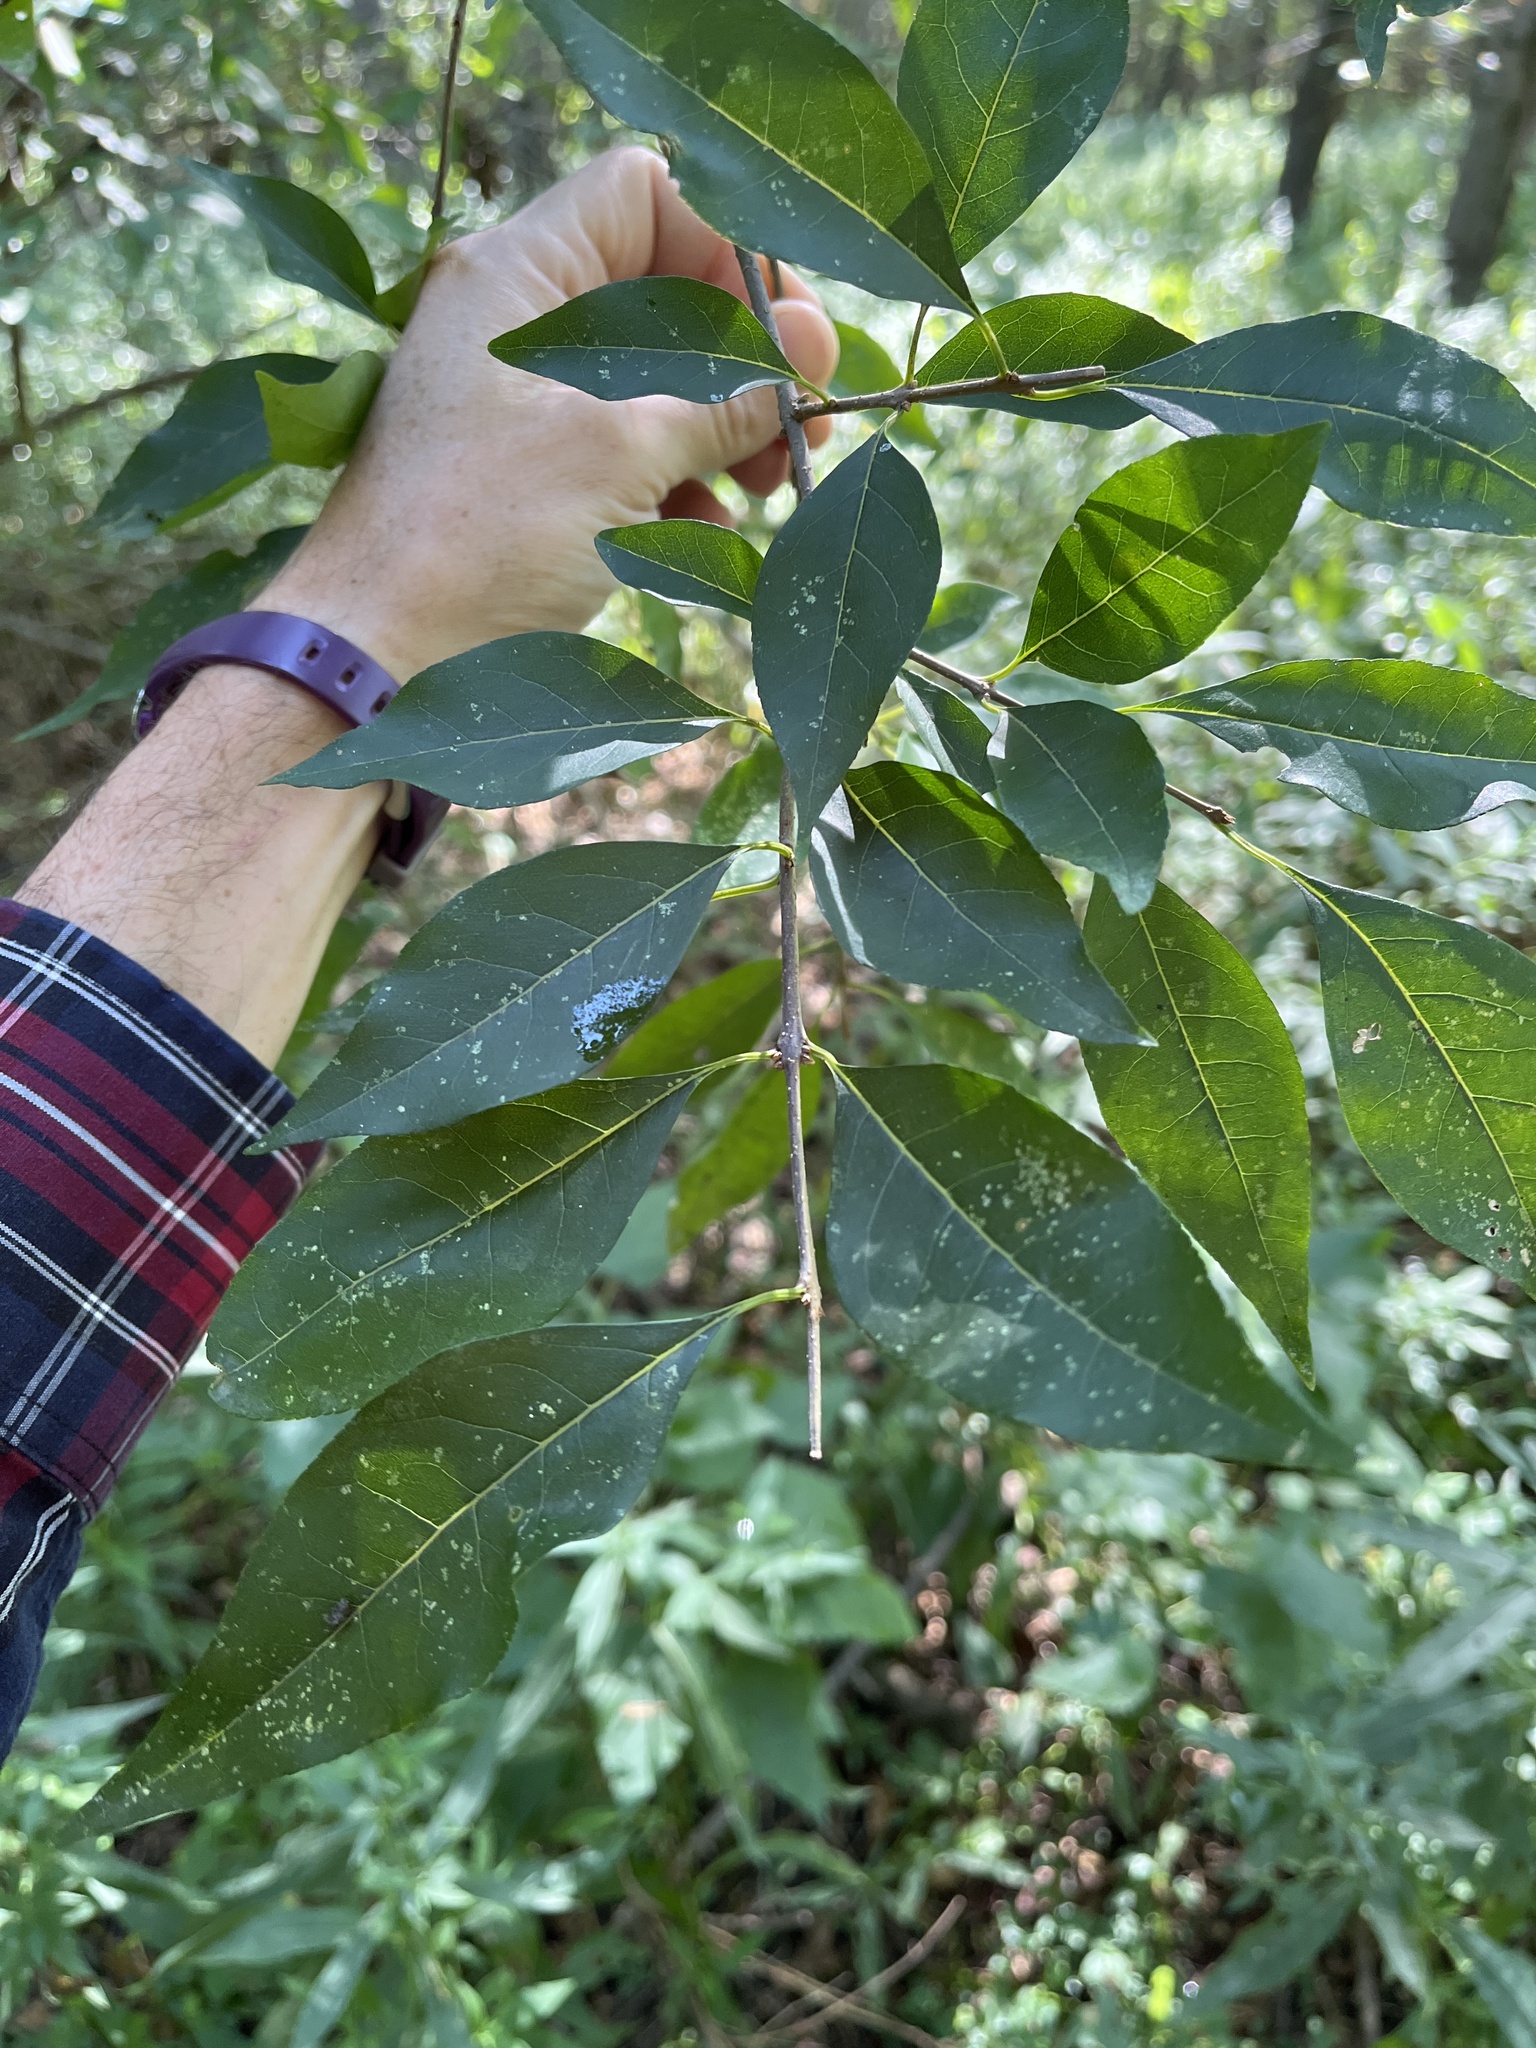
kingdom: Plantae
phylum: Tracheophyta
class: Magnoliopsida
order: Lamiales
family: Oleaceae
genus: Forestiera
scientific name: Forestiera acuminata
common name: Swamp-privet
